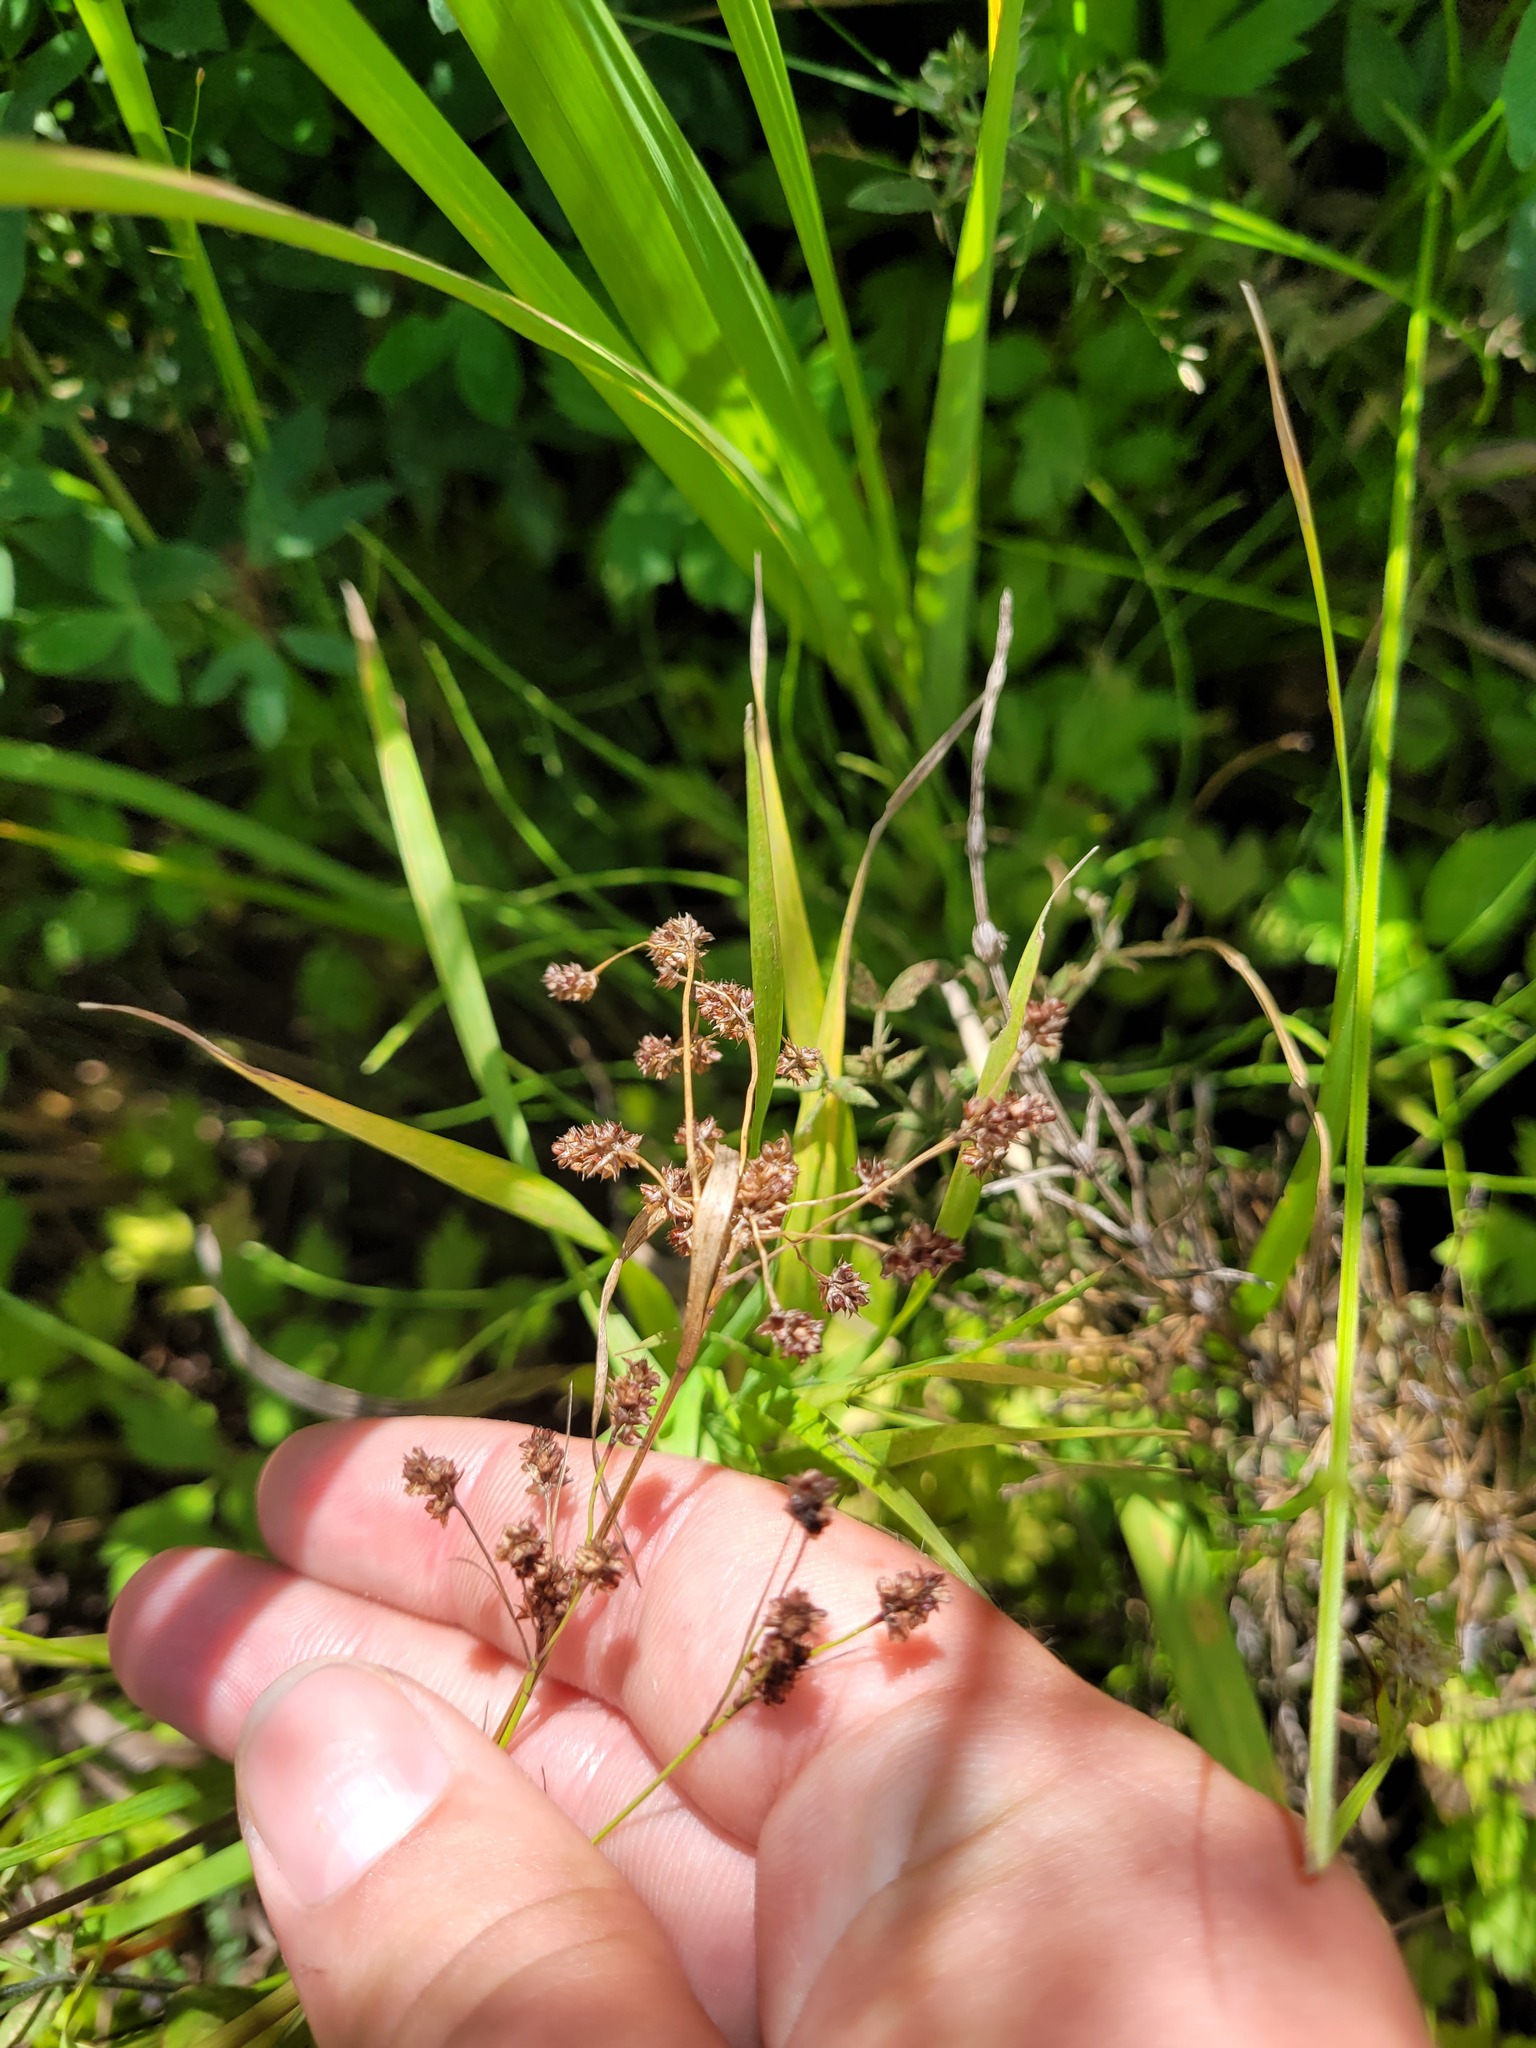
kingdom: Plantae
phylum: Tracheophyta
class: Liliopsida
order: Poales
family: Juncaceae
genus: Luzula
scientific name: Luzula pallescens
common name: Fen wood-rush
